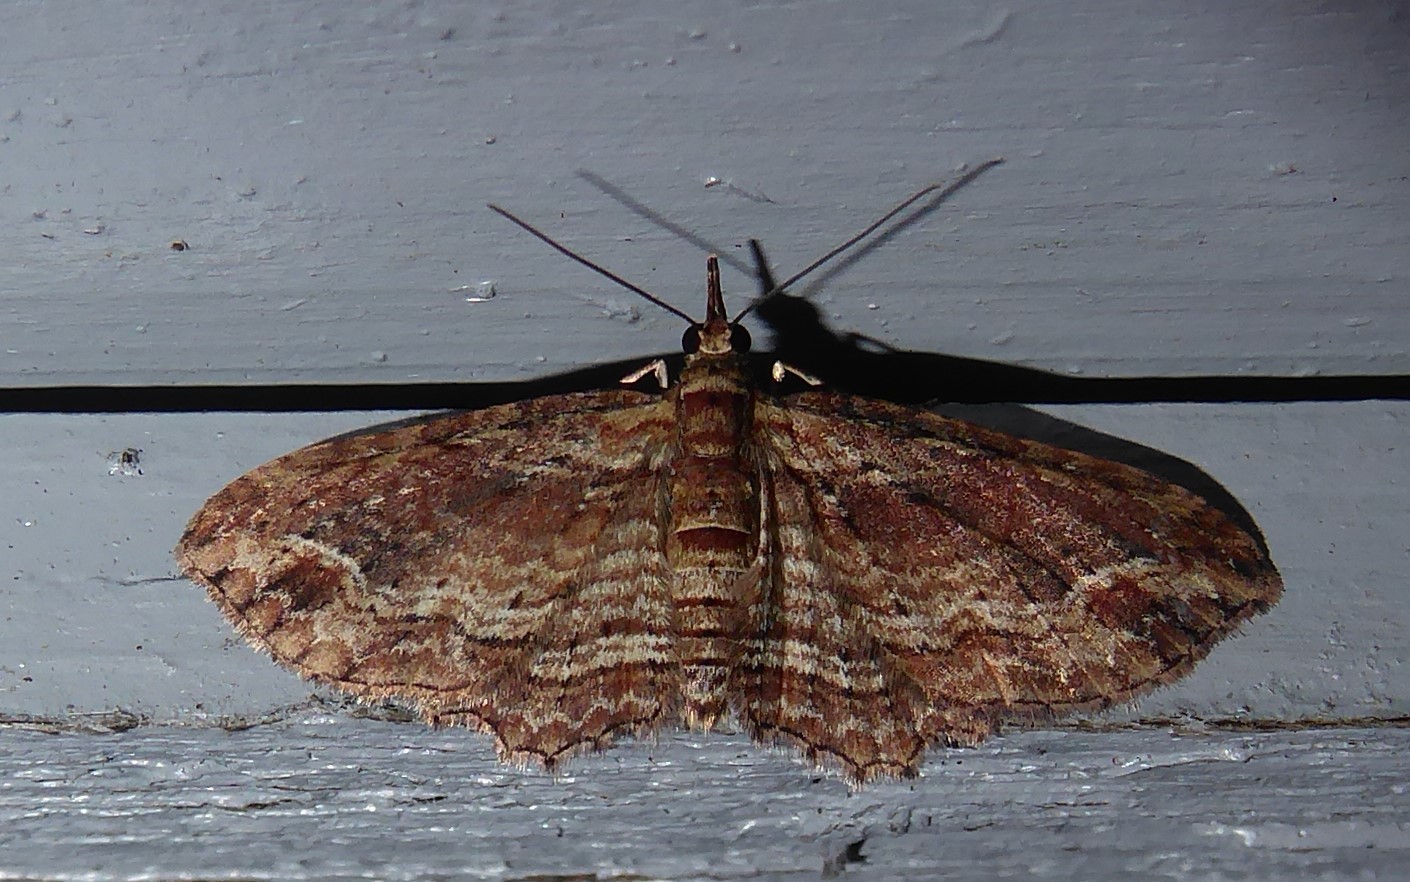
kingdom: Animalia
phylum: Arthropoda
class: Insecta
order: Lepidoptera
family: Geometridae
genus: Chloroclystis
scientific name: Chloroclystis filata
